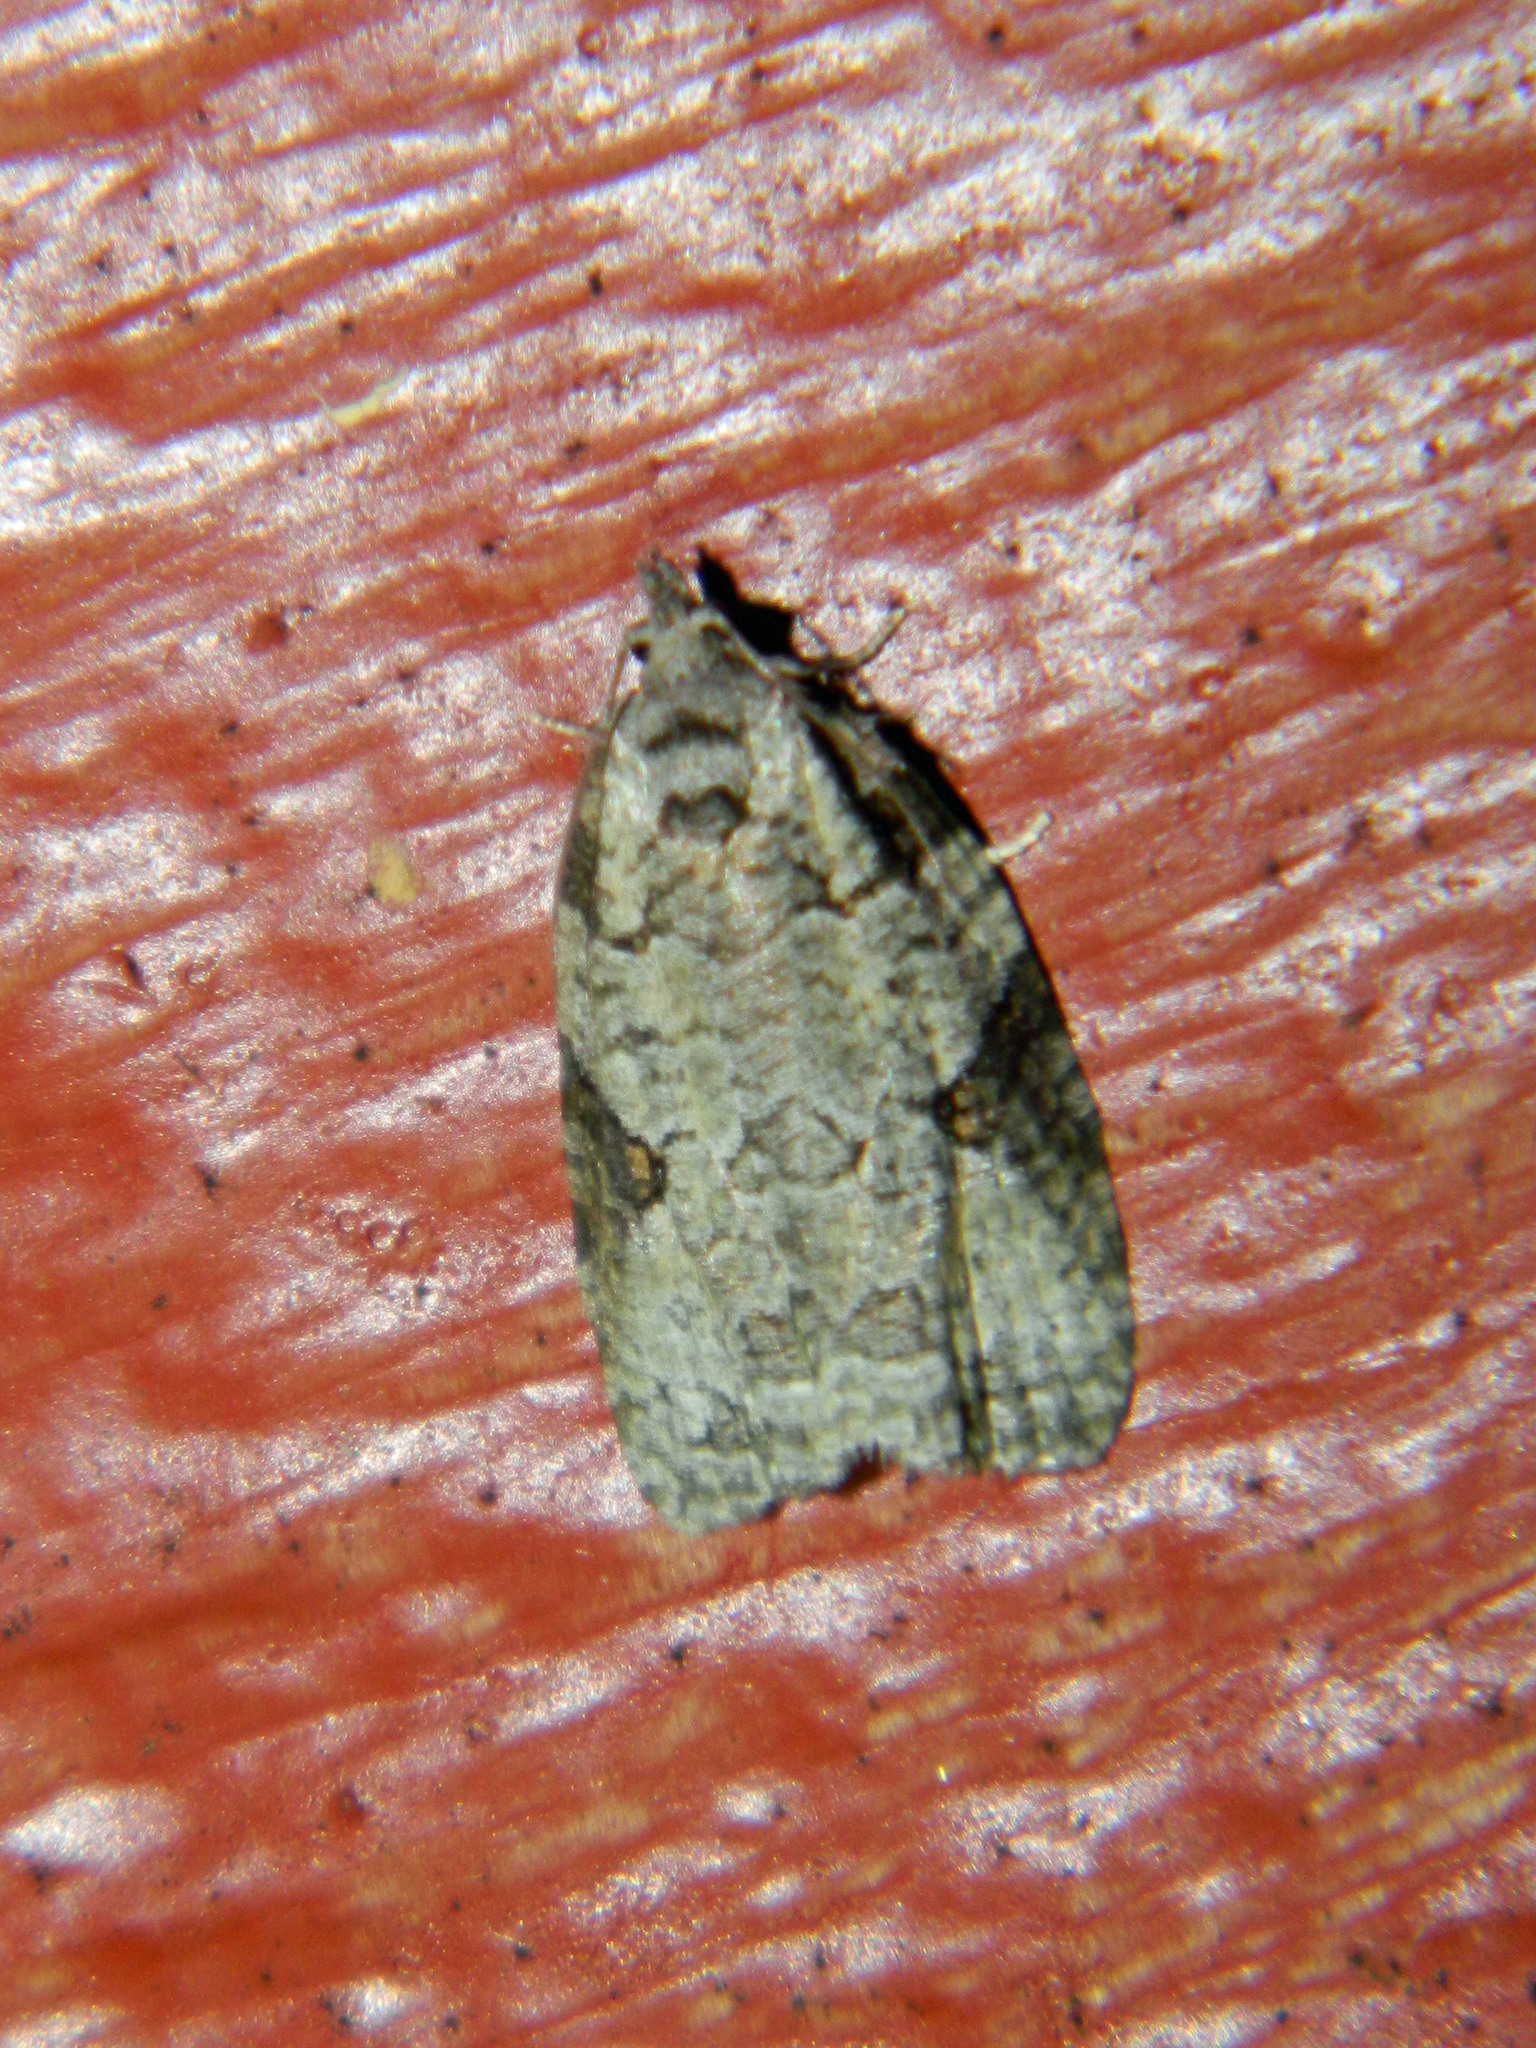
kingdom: Animalia
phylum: Arthropoda
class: Insecta
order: Lepidoptera
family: Tortricidae
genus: Apotomis
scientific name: Apotomis deceptana
